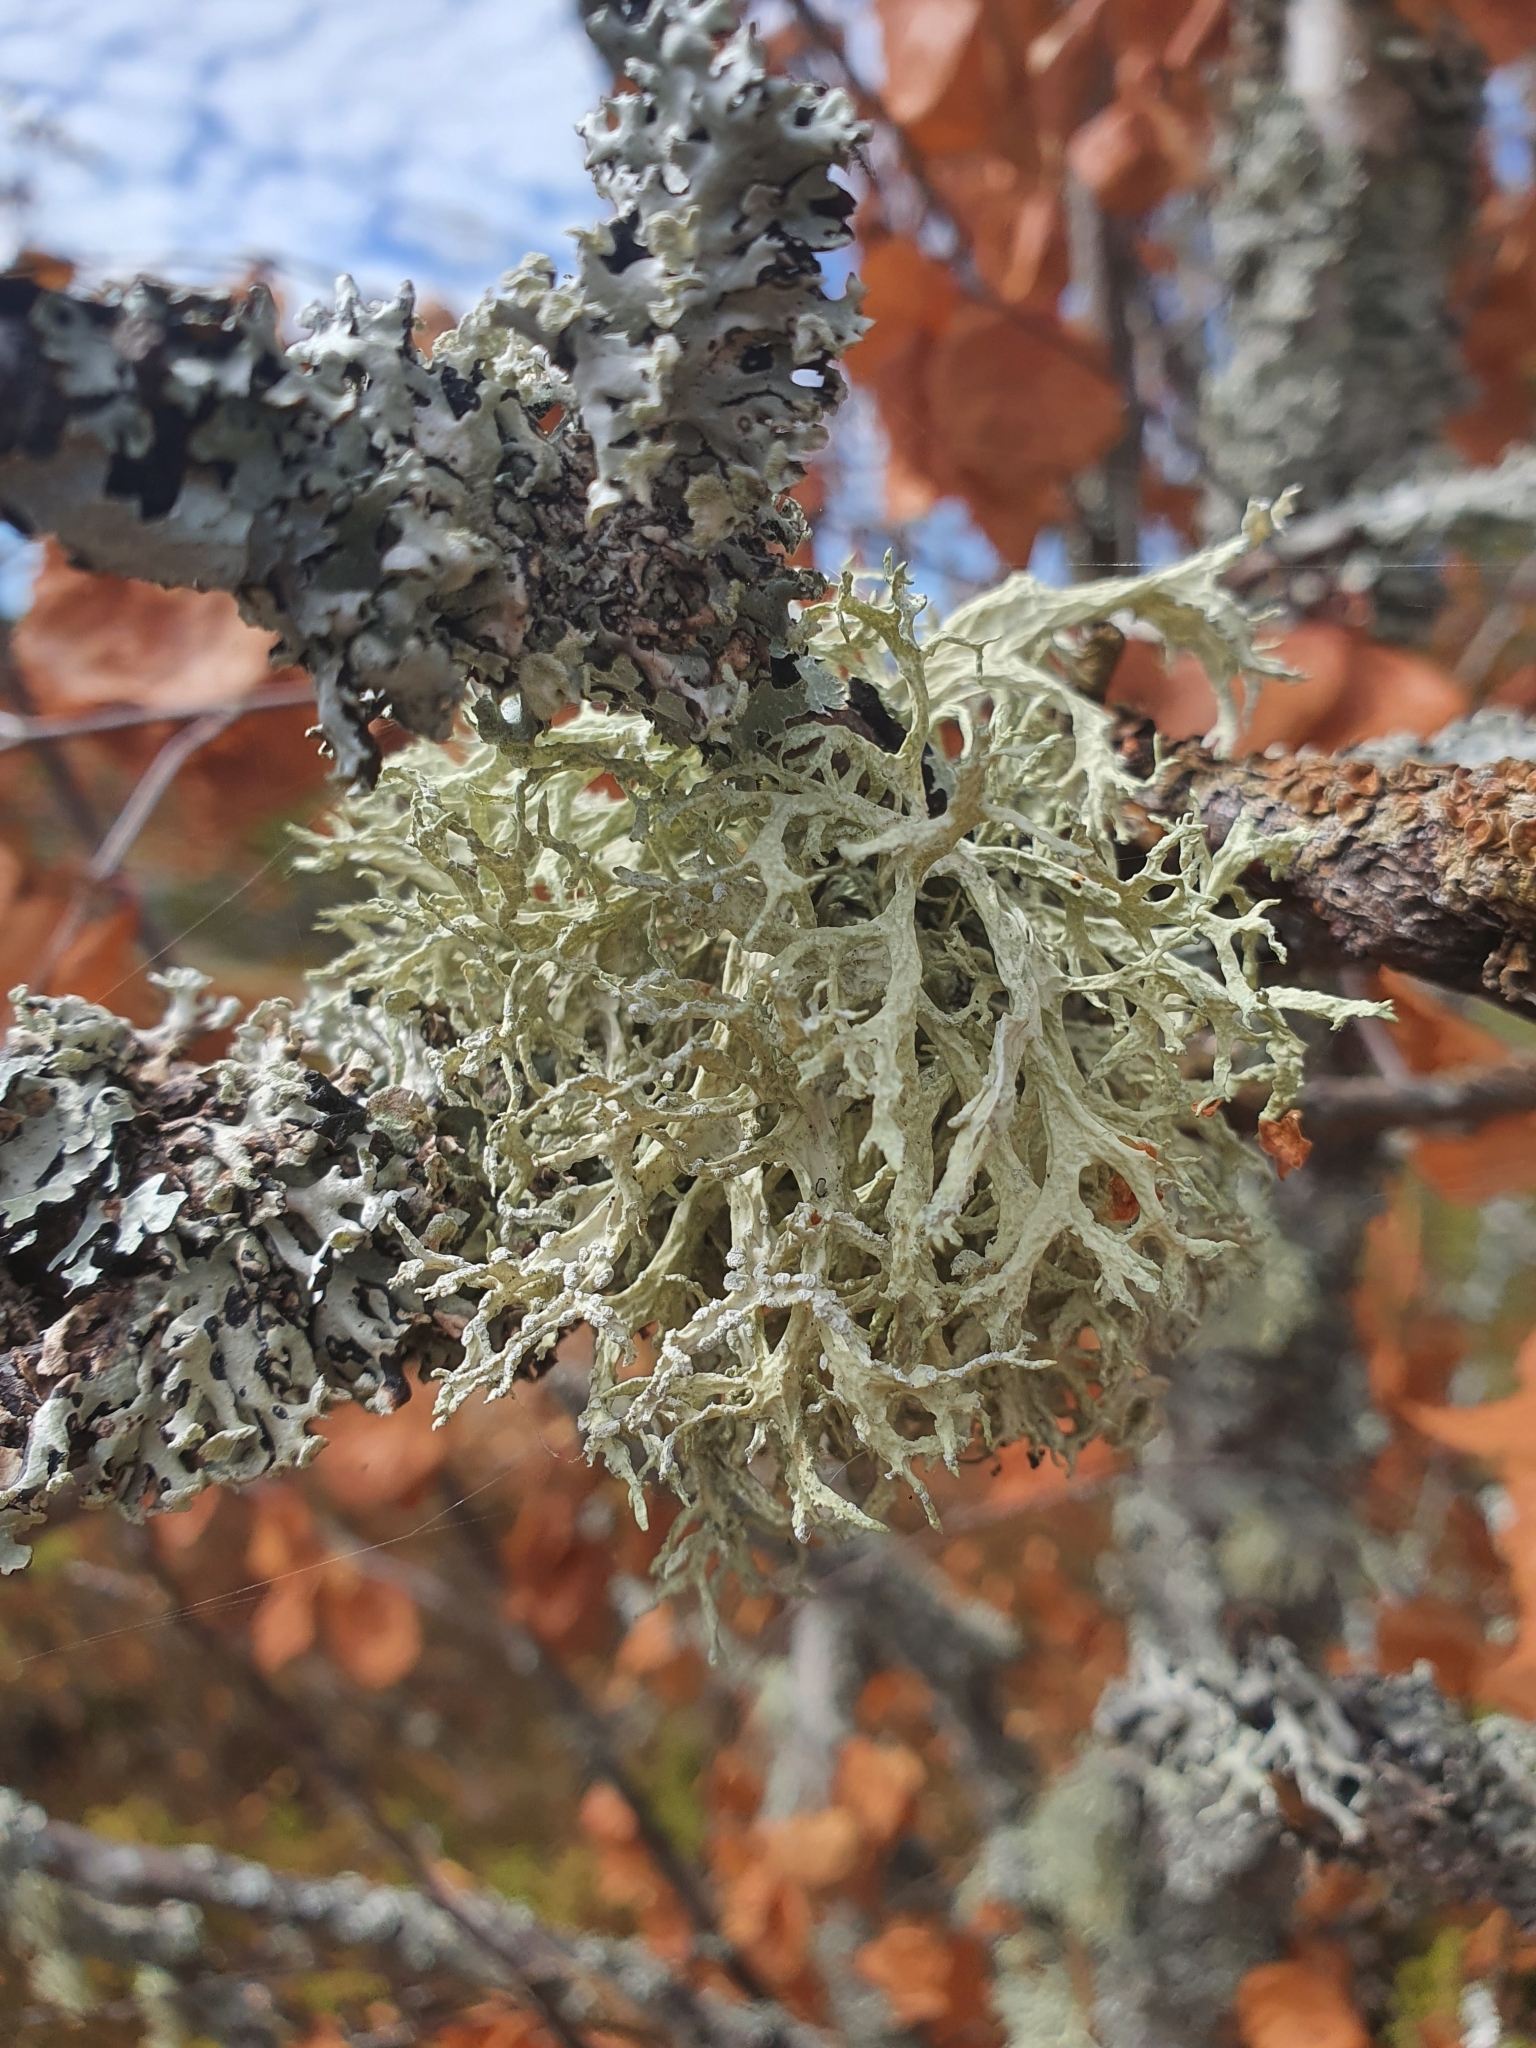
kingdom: Fungi
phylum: Ascomycota
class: Lecanoromycetes
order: Lecanorales
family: Parmeliaceae
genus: Evernia
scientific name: Evernia prunastri
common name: Oak moss
